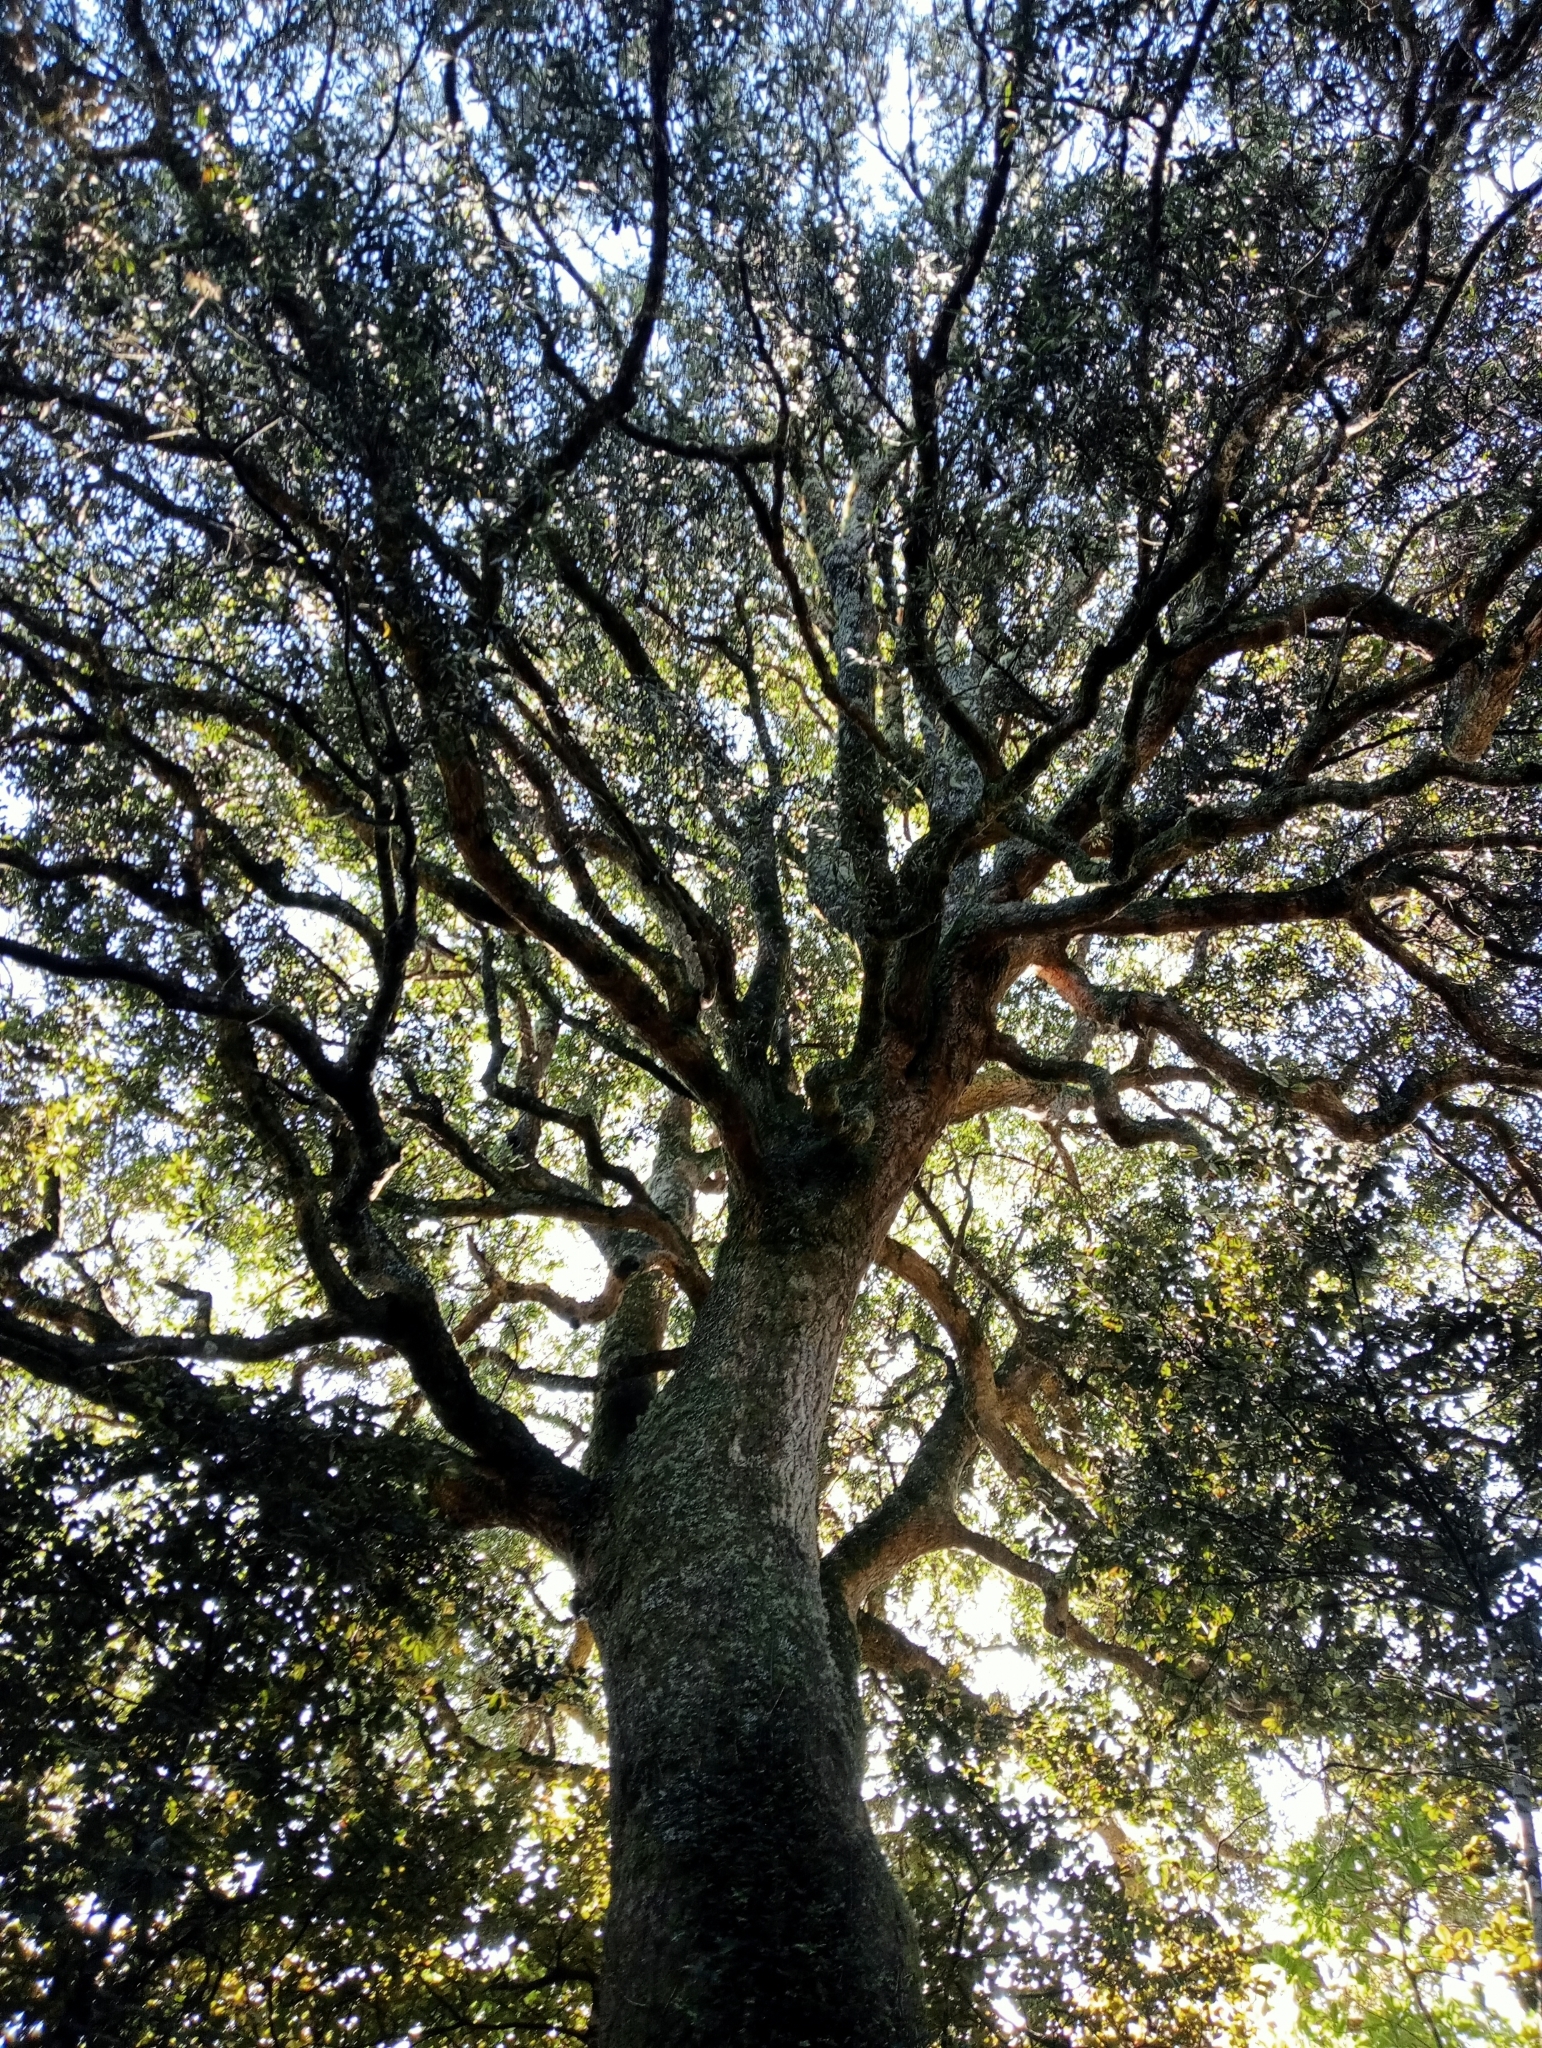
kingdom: Plantae
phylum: Tracheophyta
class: Magnoliopsida
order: Oxalidales
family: Elaeocarpaceae
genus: Elaeocarpus
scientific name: Elaeocarpus hookerianus
